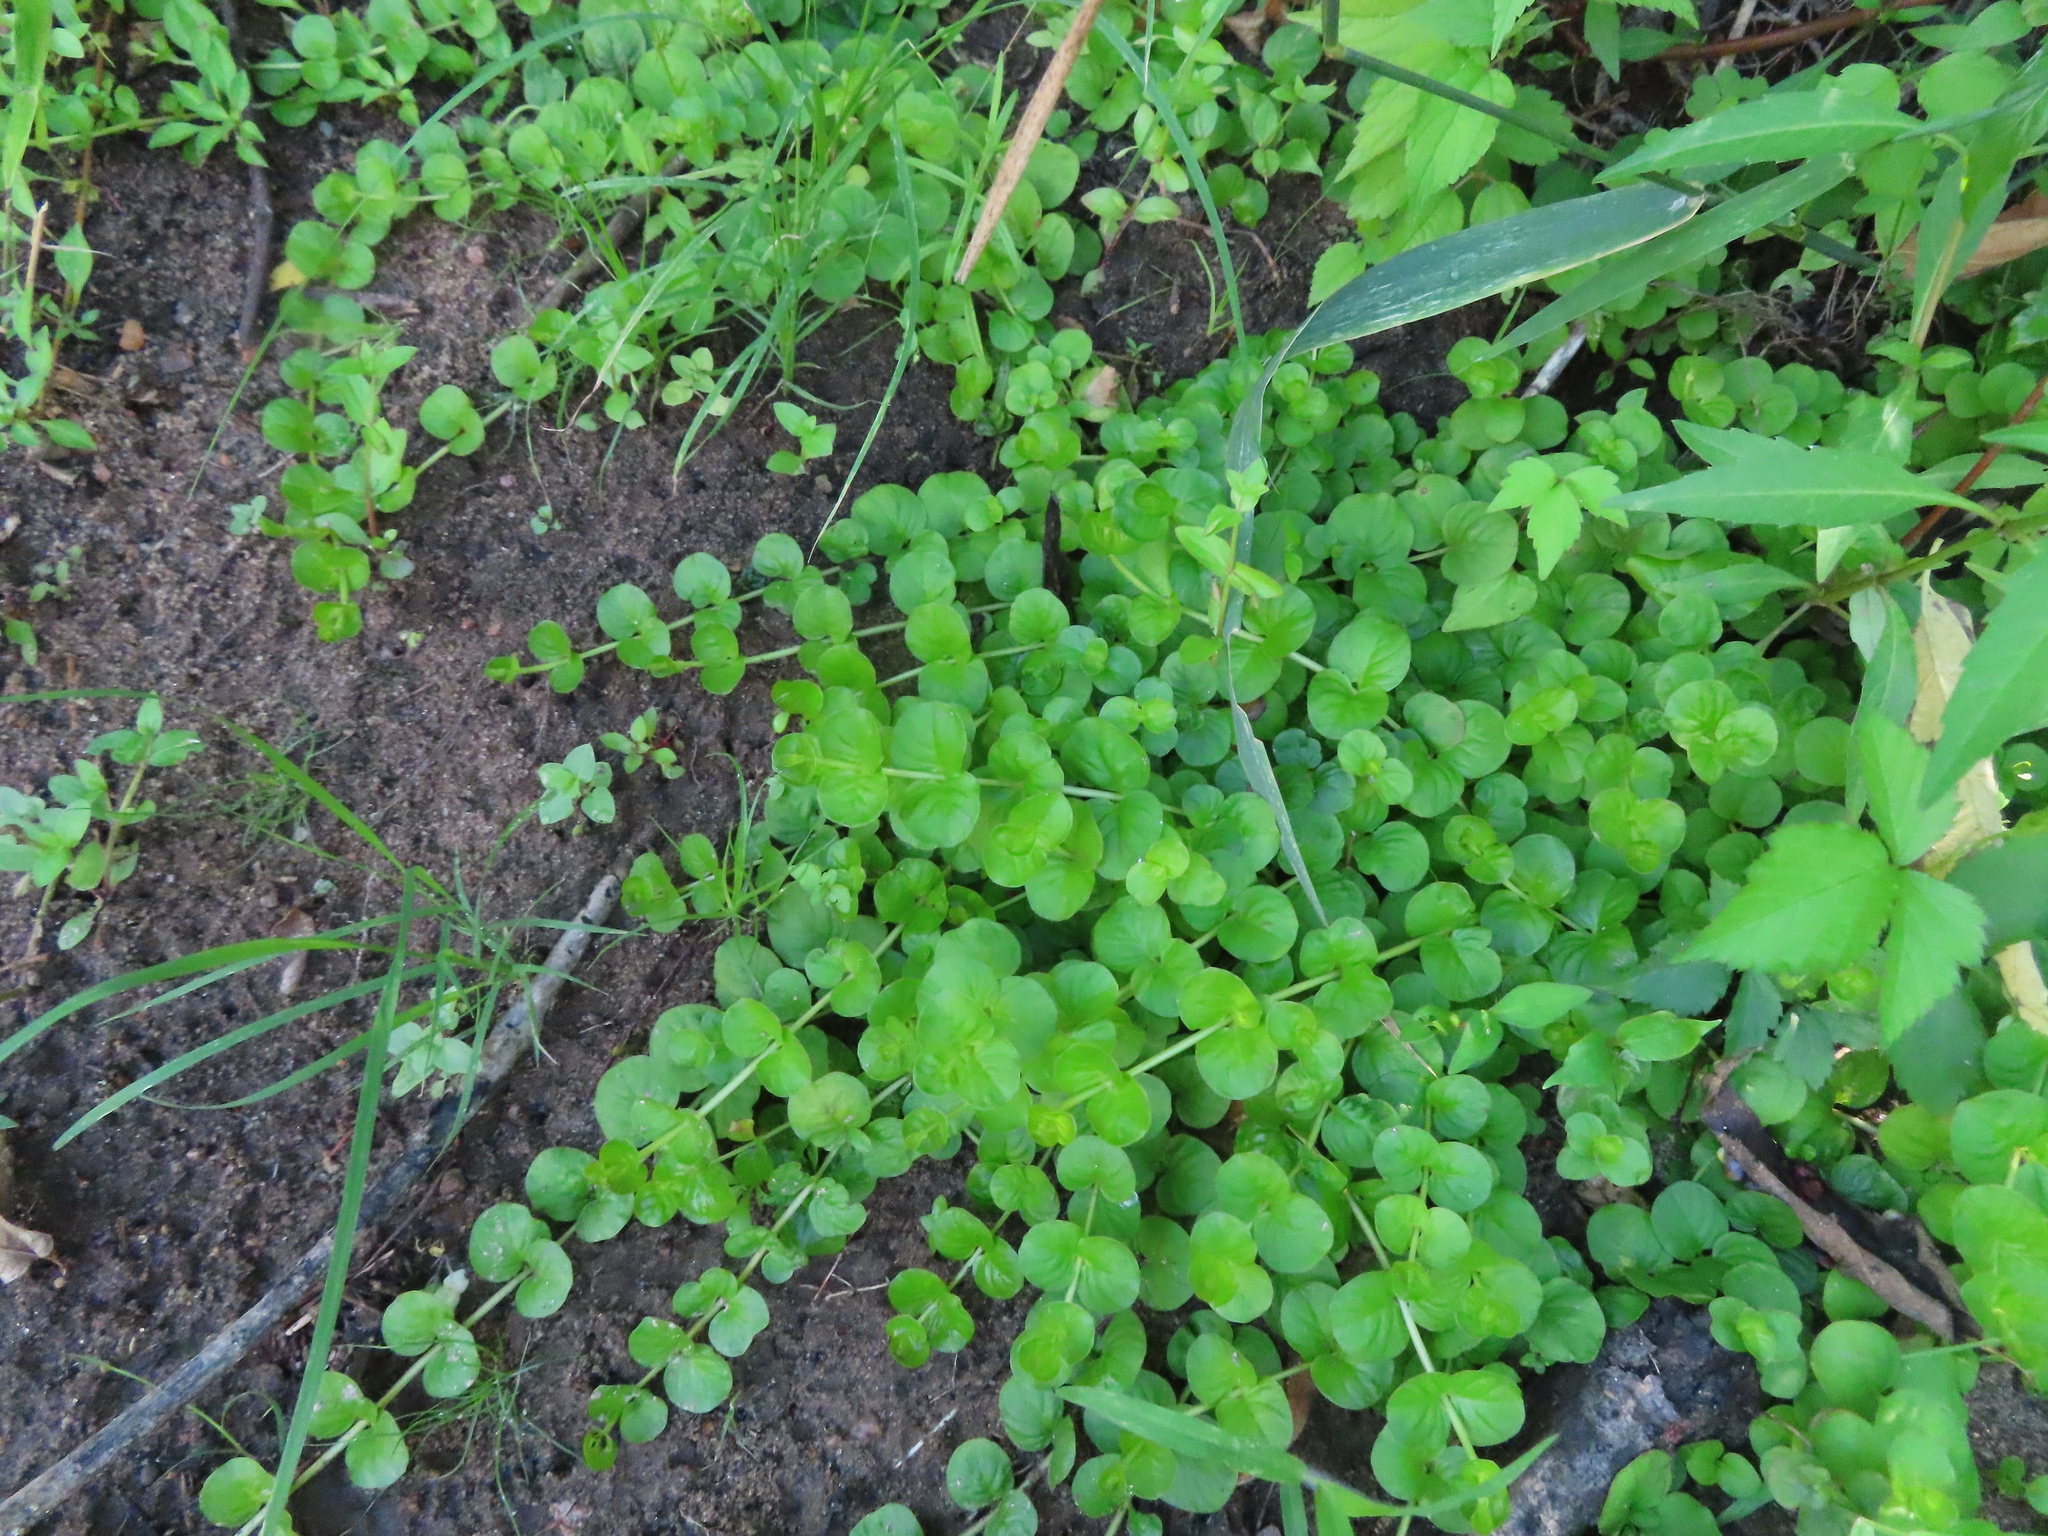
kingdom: Plantae
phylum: Tracheophyta
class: Magnoliopsida
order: Ericales
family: Primulaceae
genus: Lysimachia
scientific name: Lysimachia nummularia
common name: Moneywort
